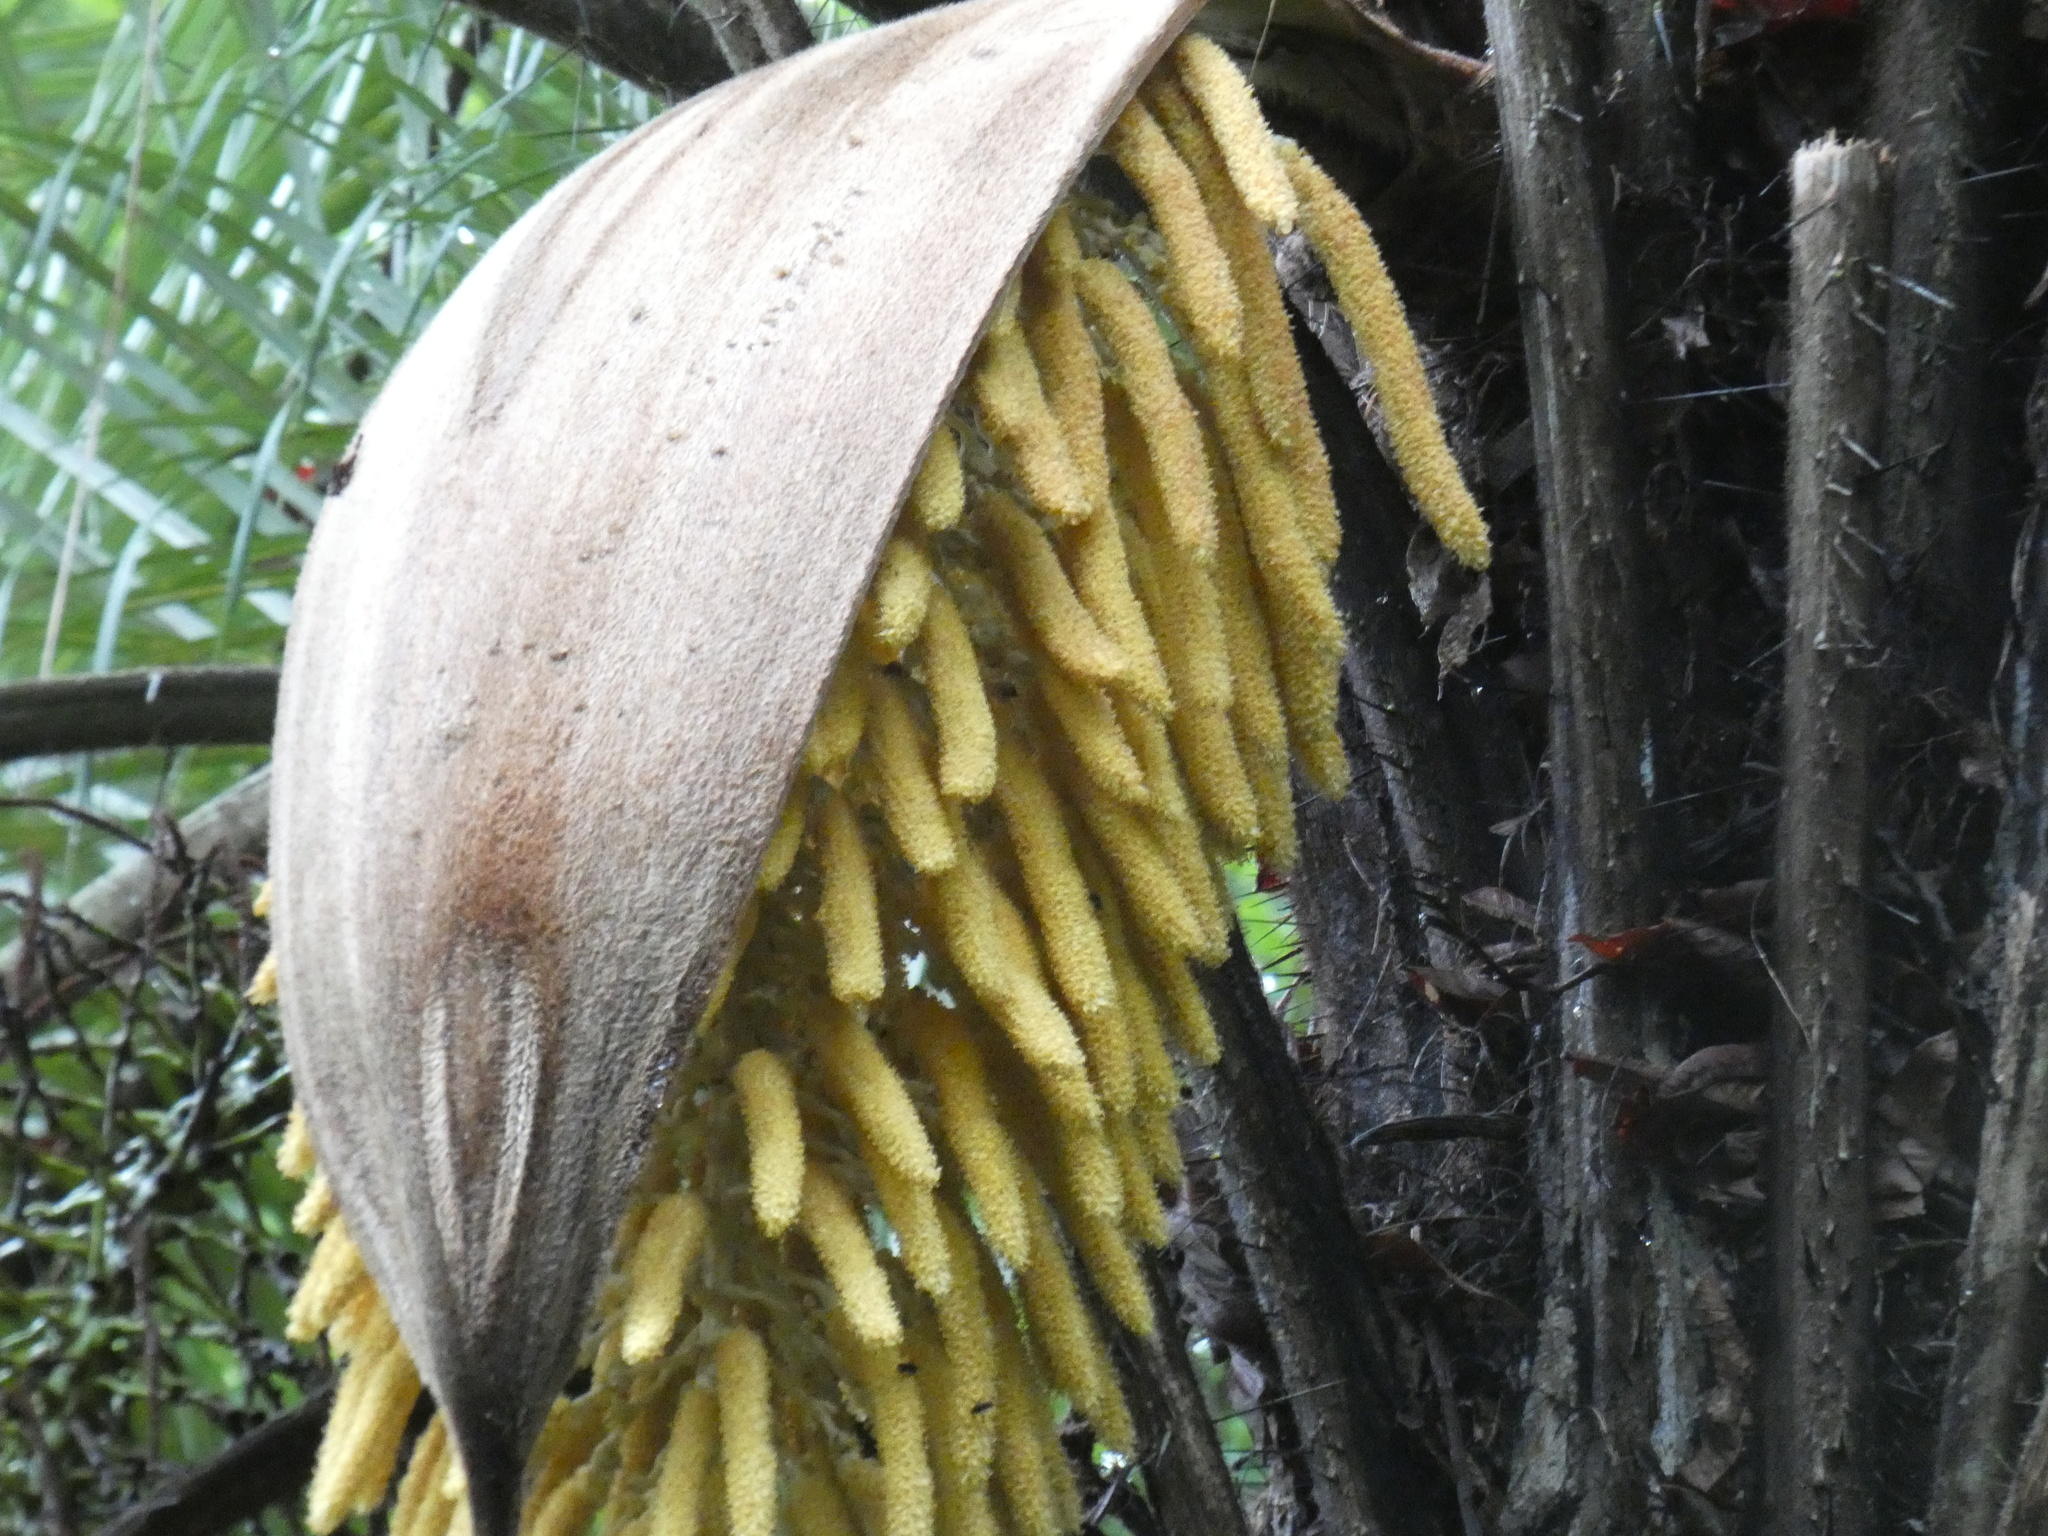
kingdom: Plantae
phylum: Tracheophyta
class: Liliopsida
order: Arecales
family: Arecaceae
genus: Acrocomia
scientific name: Acrocomia aculeata
